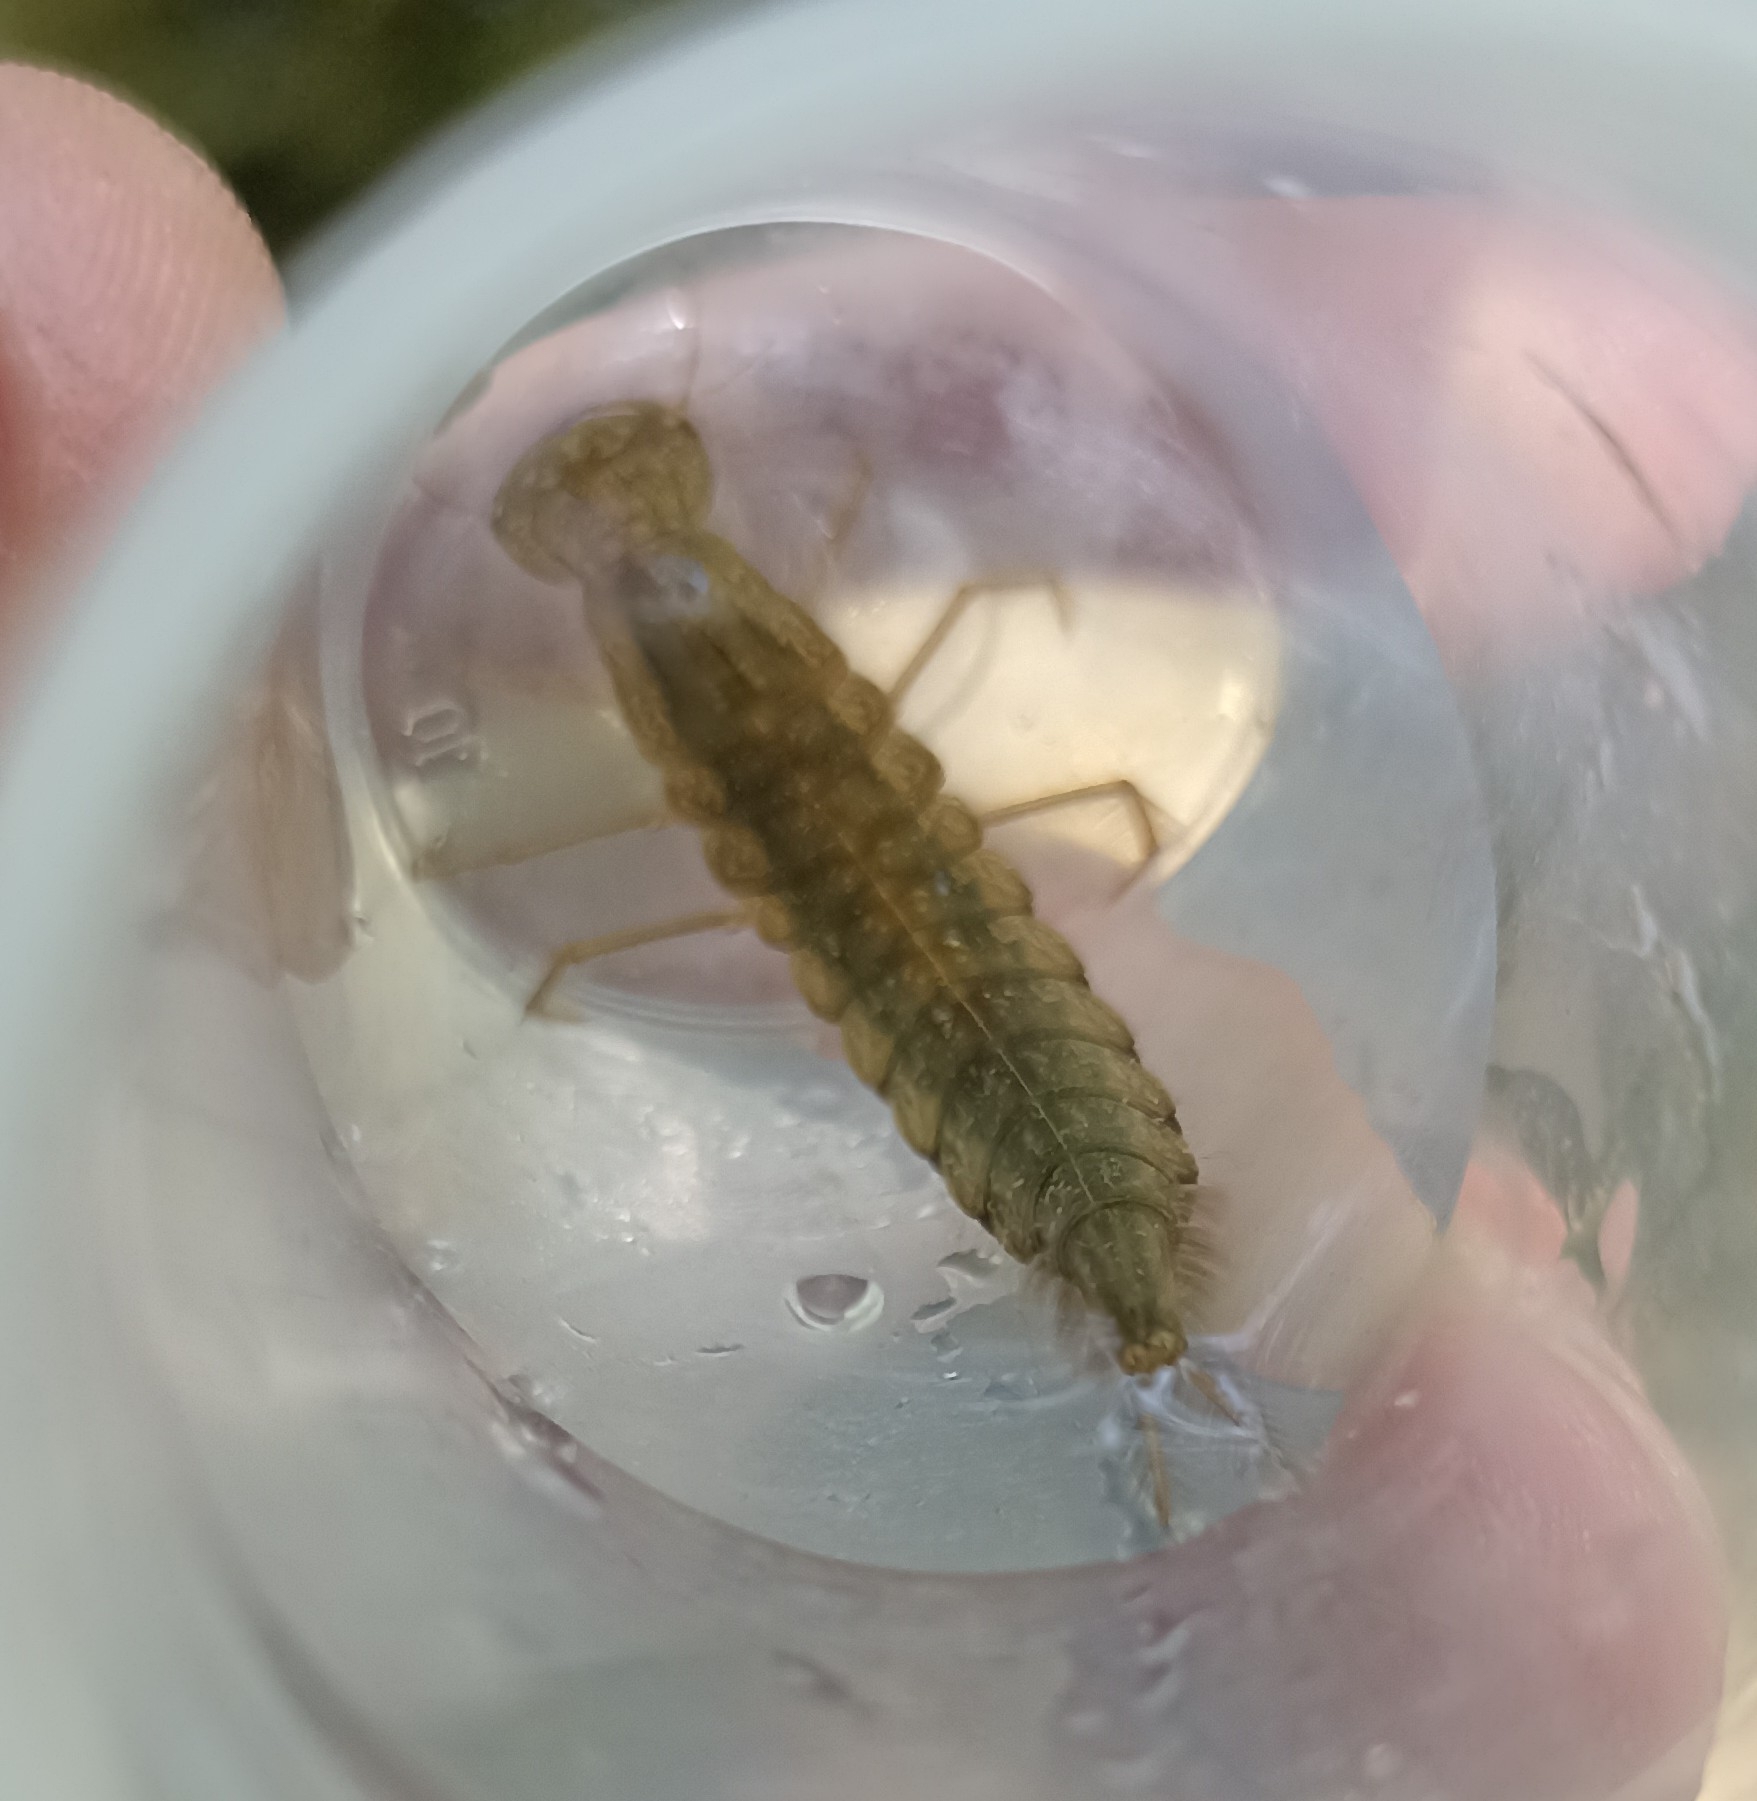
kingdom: Animalia
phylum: Arthropoda
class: Insecta
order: Coleoptera
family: Dytiscidae
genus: Dytiscus
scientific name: Dytiscus
